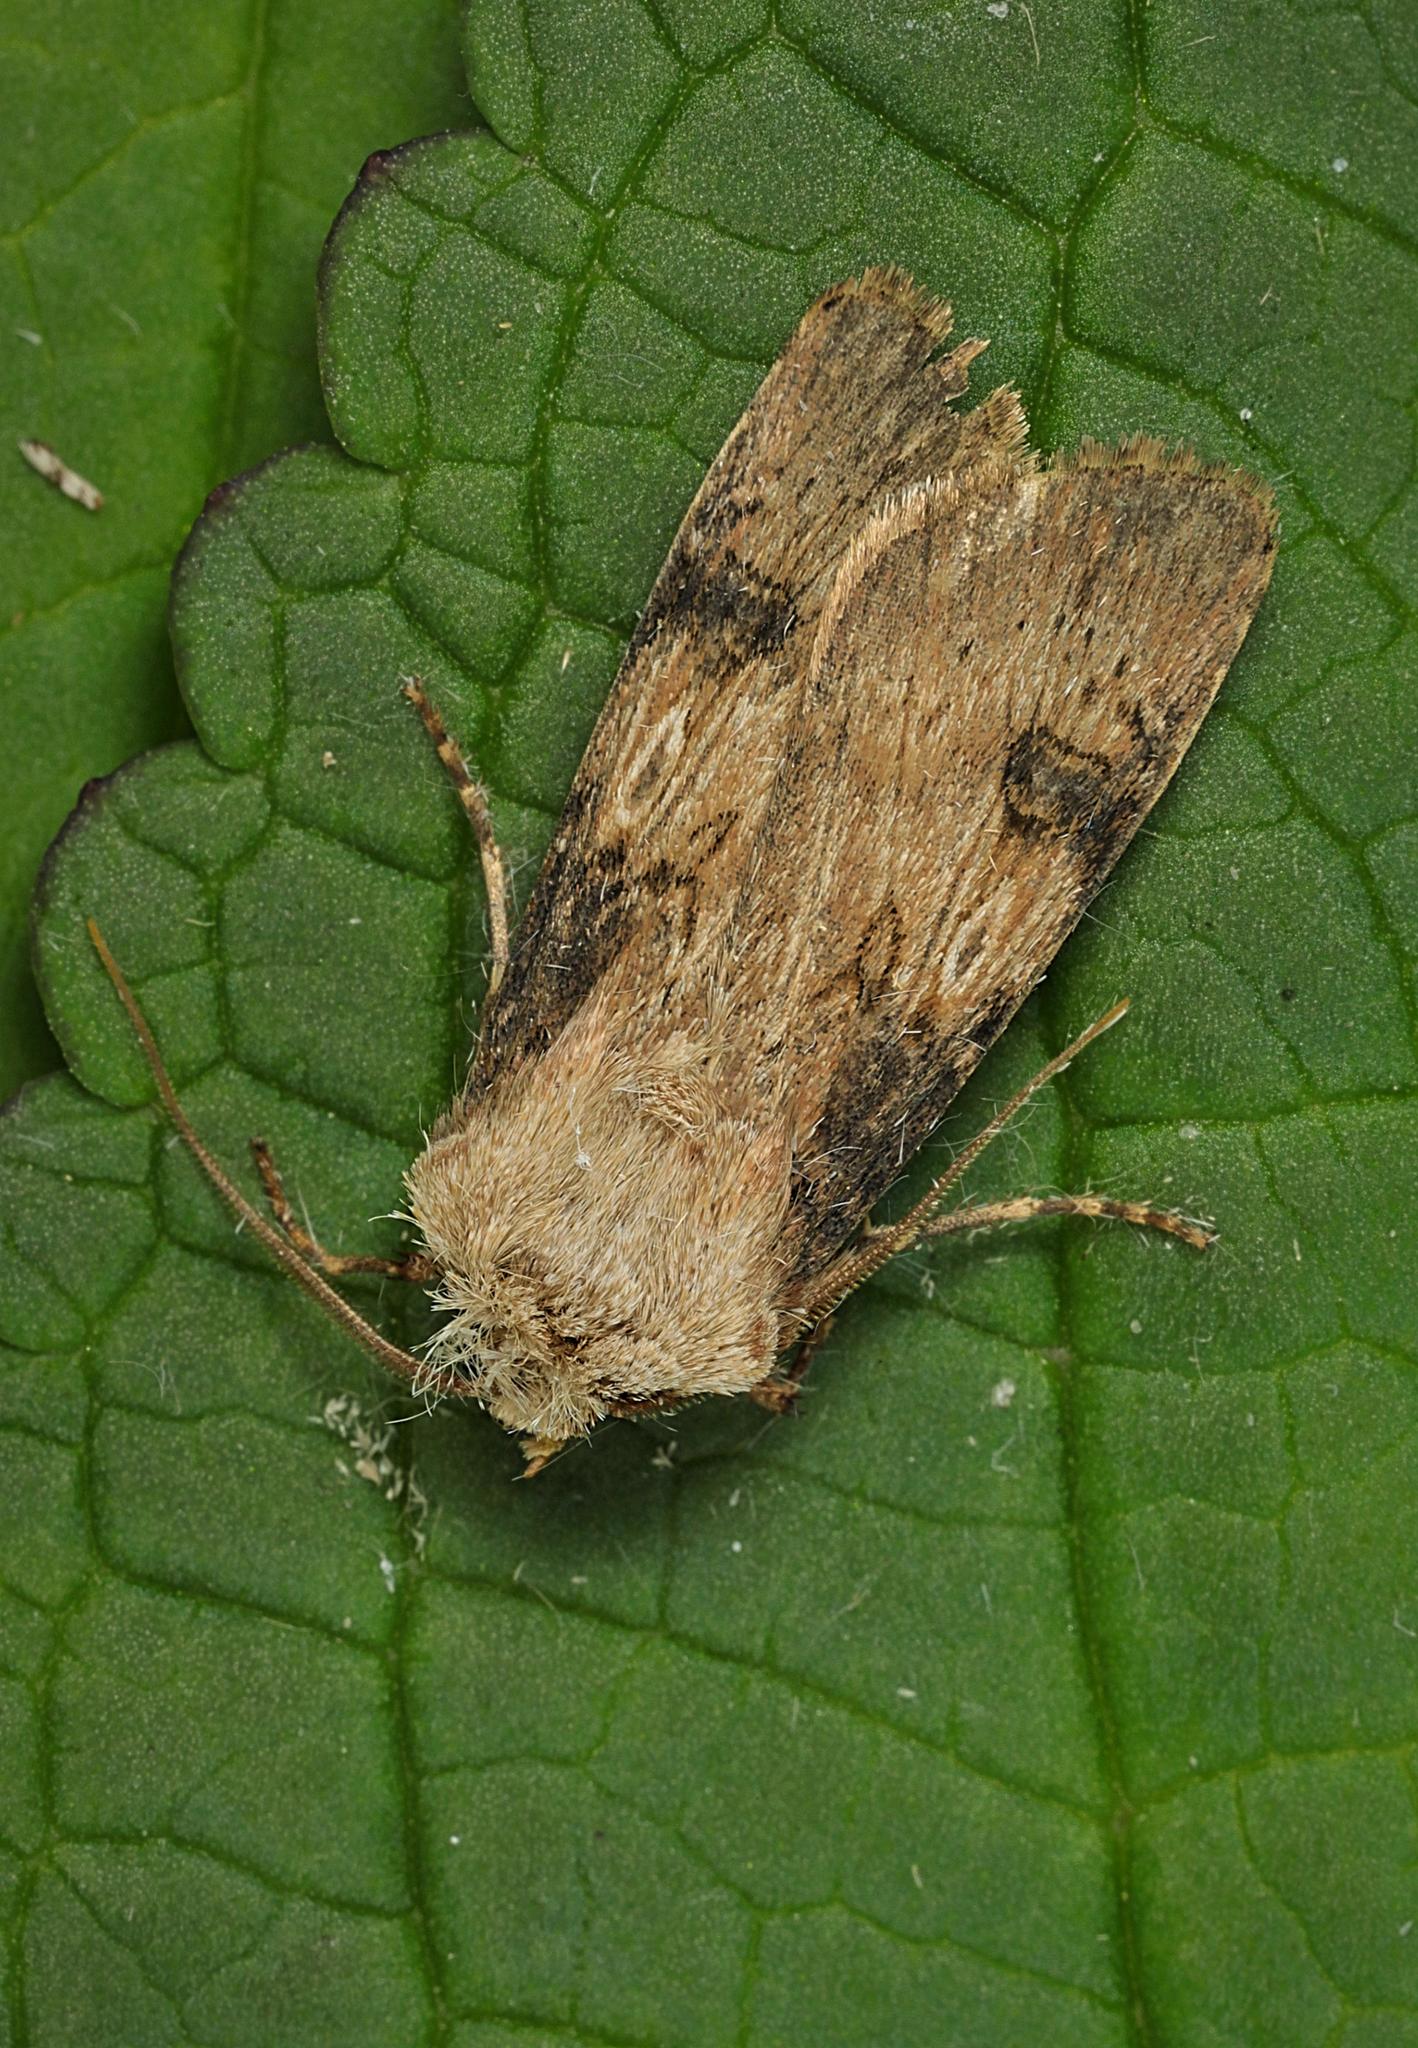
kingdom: Animalia
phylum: Arthropoda
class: Insecta
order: Lepidoptera
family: Noctuidae
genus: Agrotis
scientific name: Agrotis puta
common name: Shuttle-shaped dart
